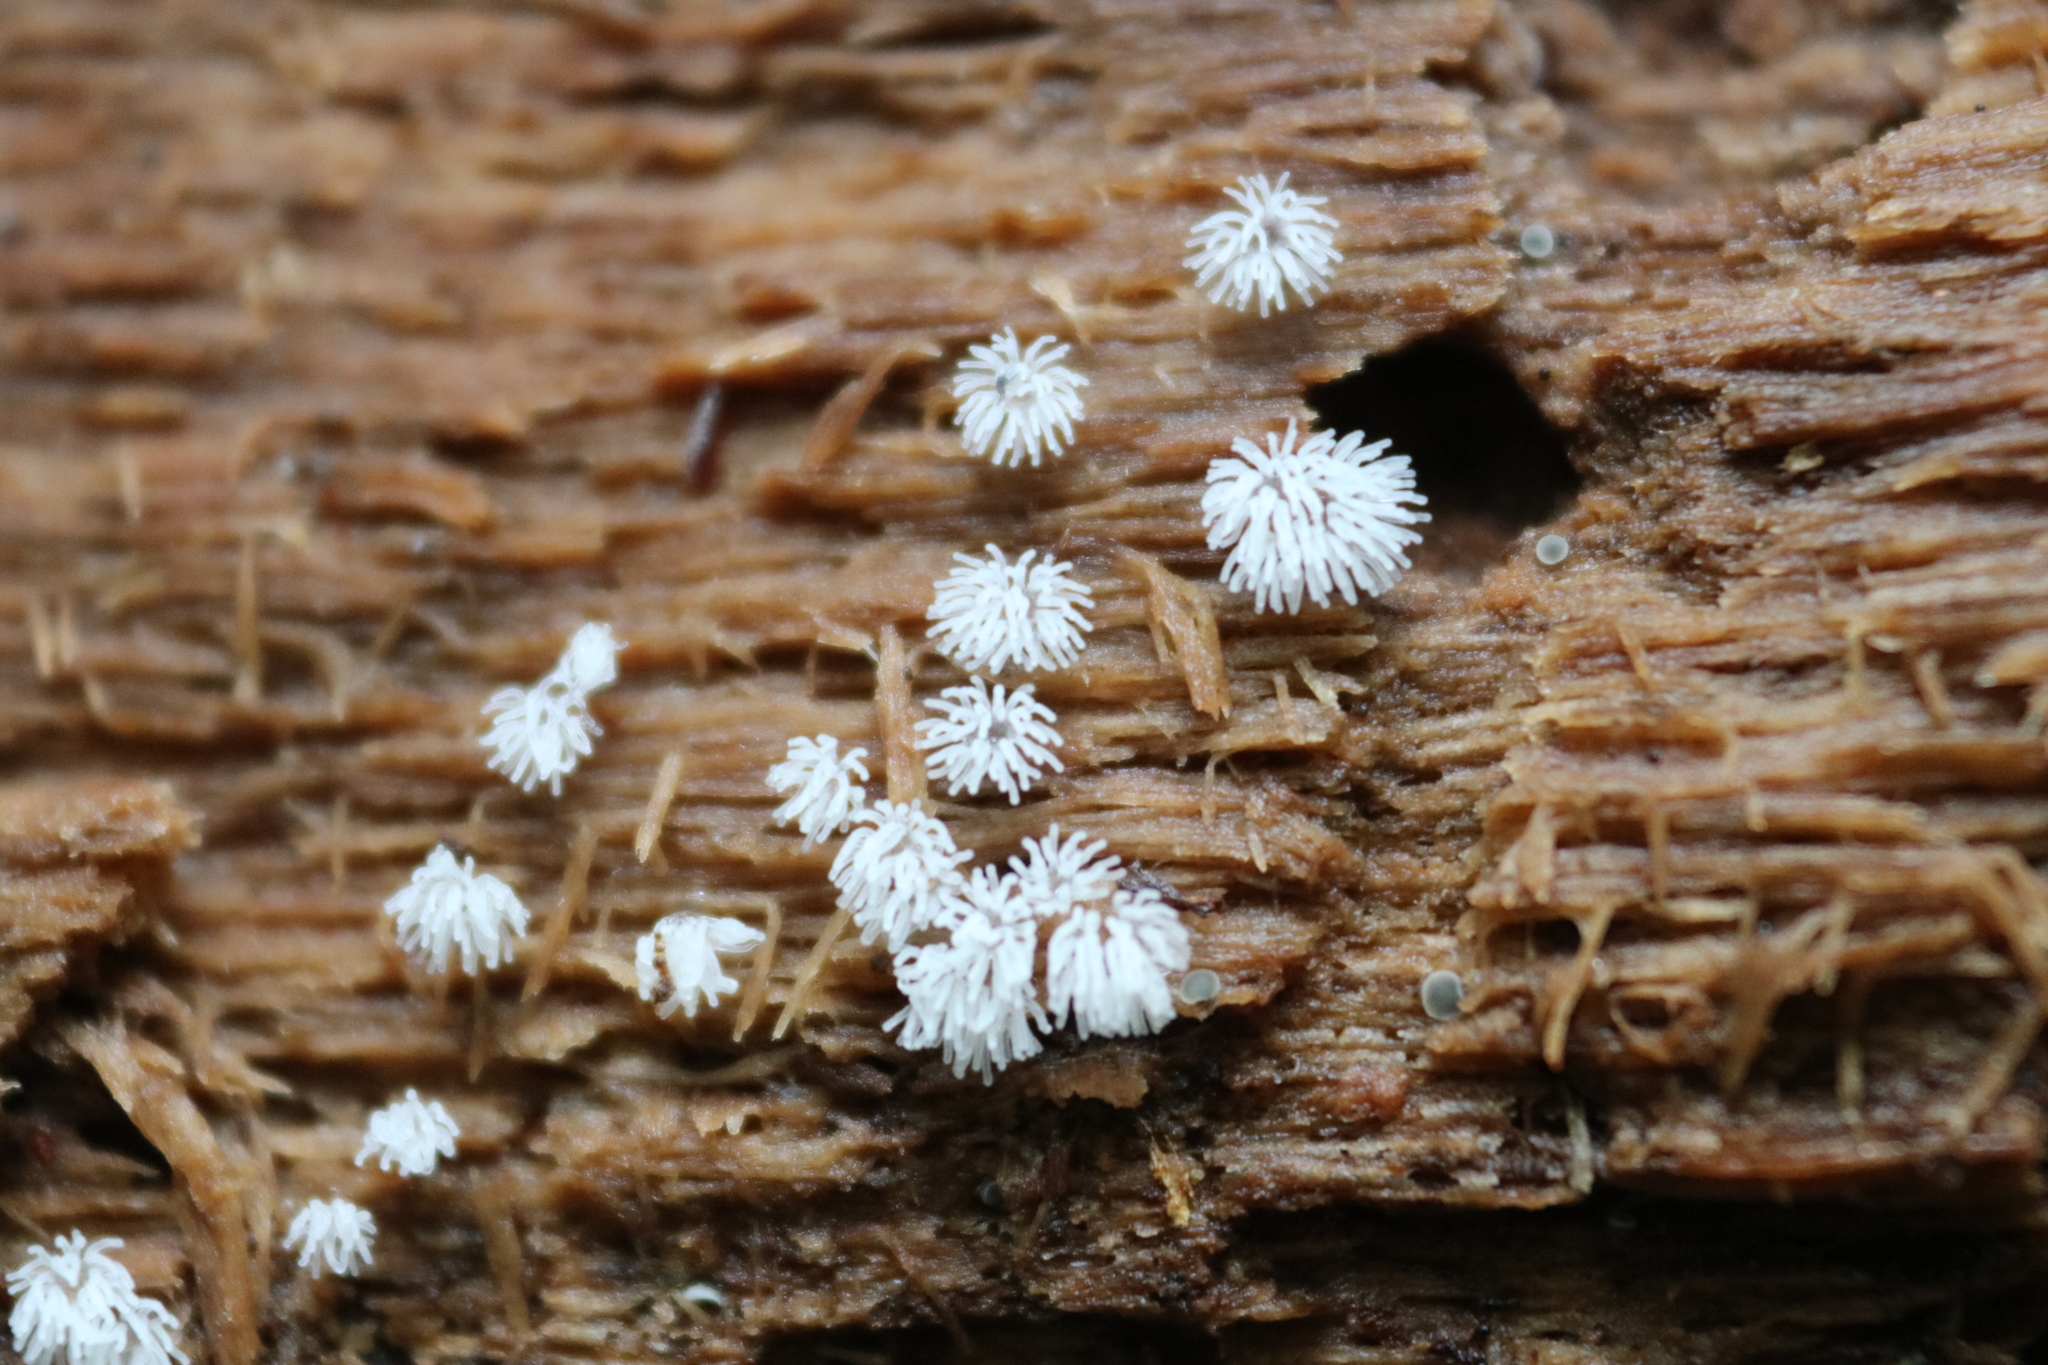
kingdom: Protozoa
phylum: Mycetozoa
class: Protosteliomycetes
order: Ceratiomyxales
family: Ceratiomyxaceae
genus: Ceratiomyxa
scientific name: Ceratiomyxa fruticulosa
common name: Honeycomb coral slime mold
